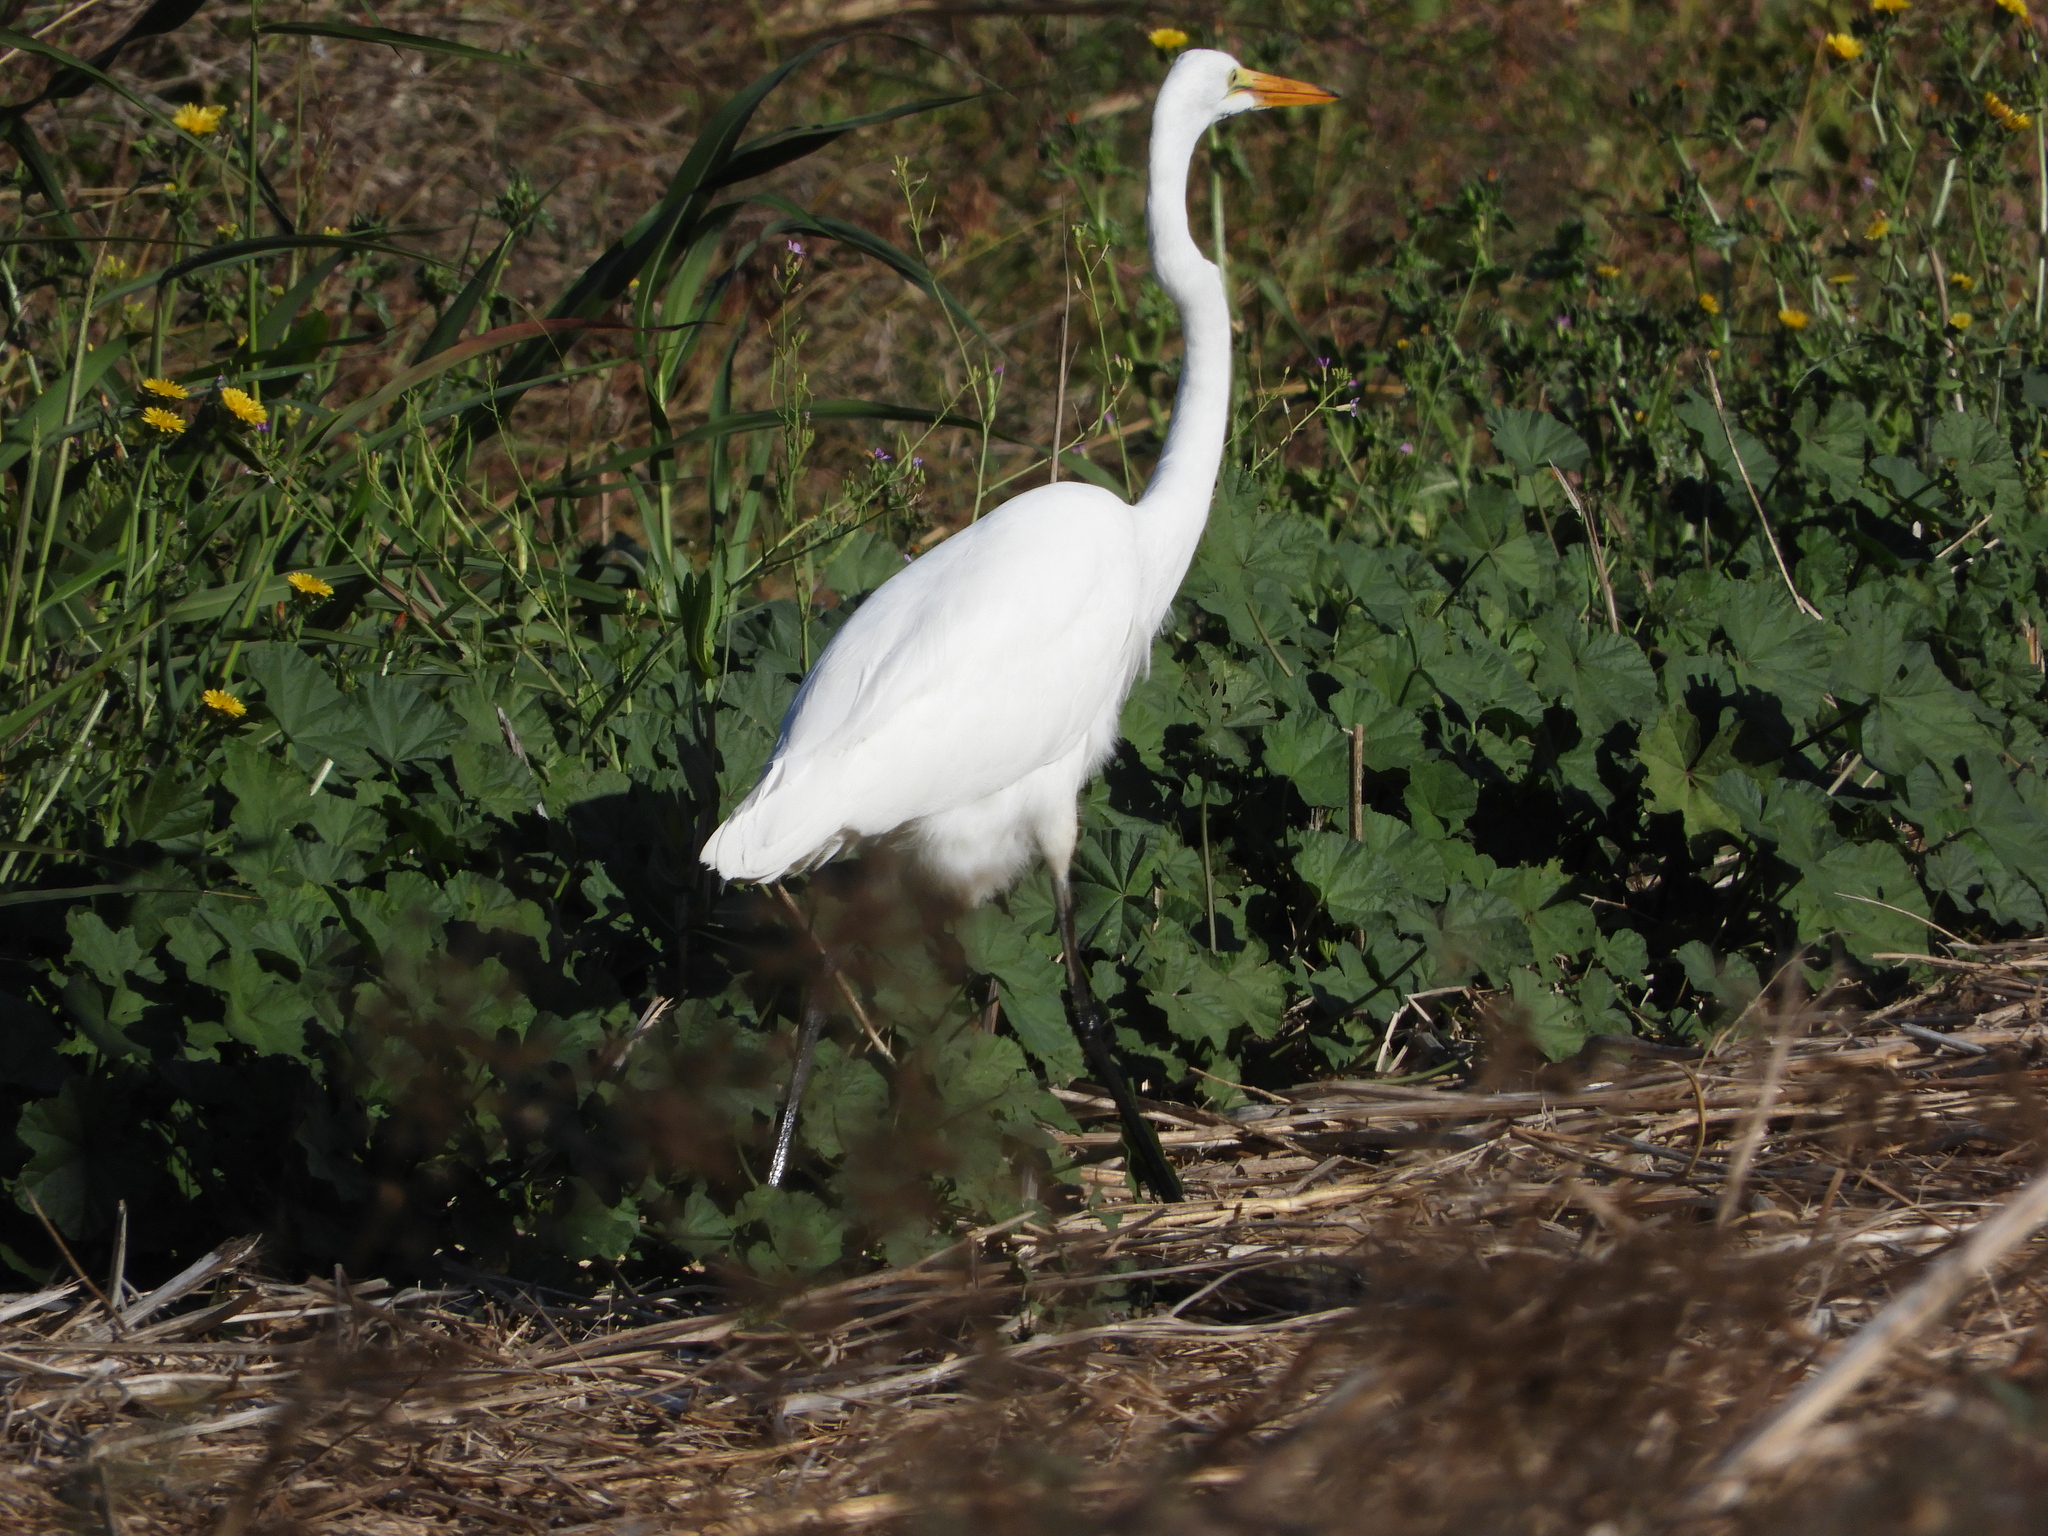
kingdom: Animalia
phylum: Chordata
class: Aves
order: Pelecaniformes
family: Ardeidae
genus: Ardea
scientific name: Ardea alba
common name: Great egret
